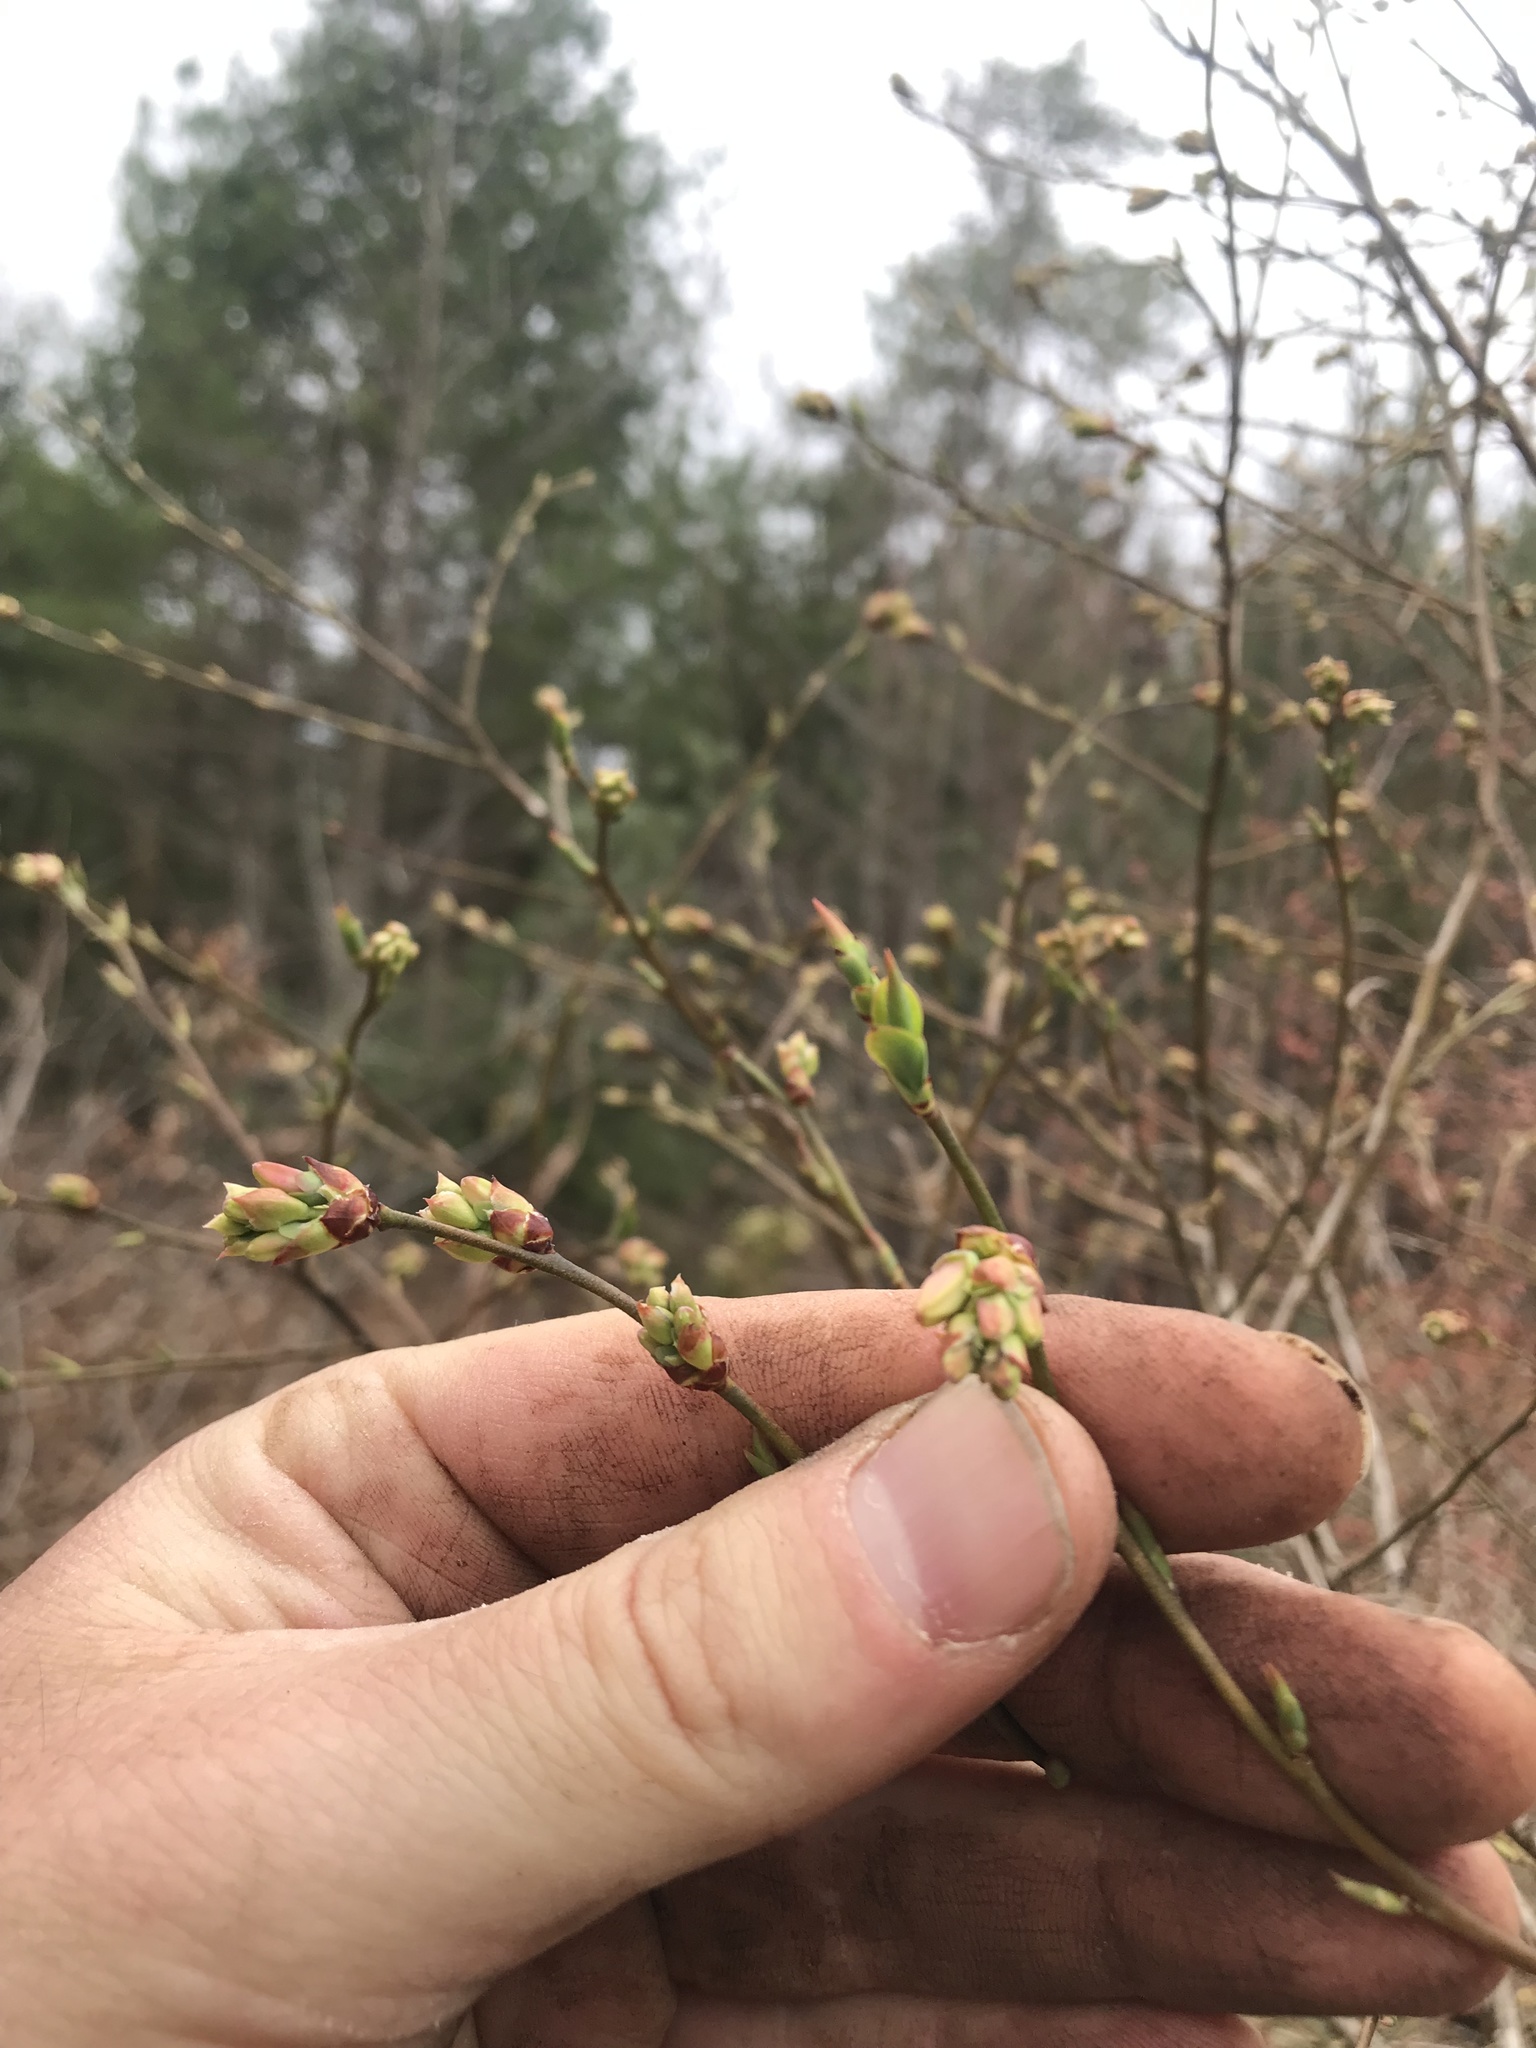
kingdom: Plantae
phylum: Tracheophyta
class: Magnoliopsida
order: Ericales
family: Ericaceae
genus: Vaccinium
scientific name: Vaccinium corymbosum
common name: Blueberry
